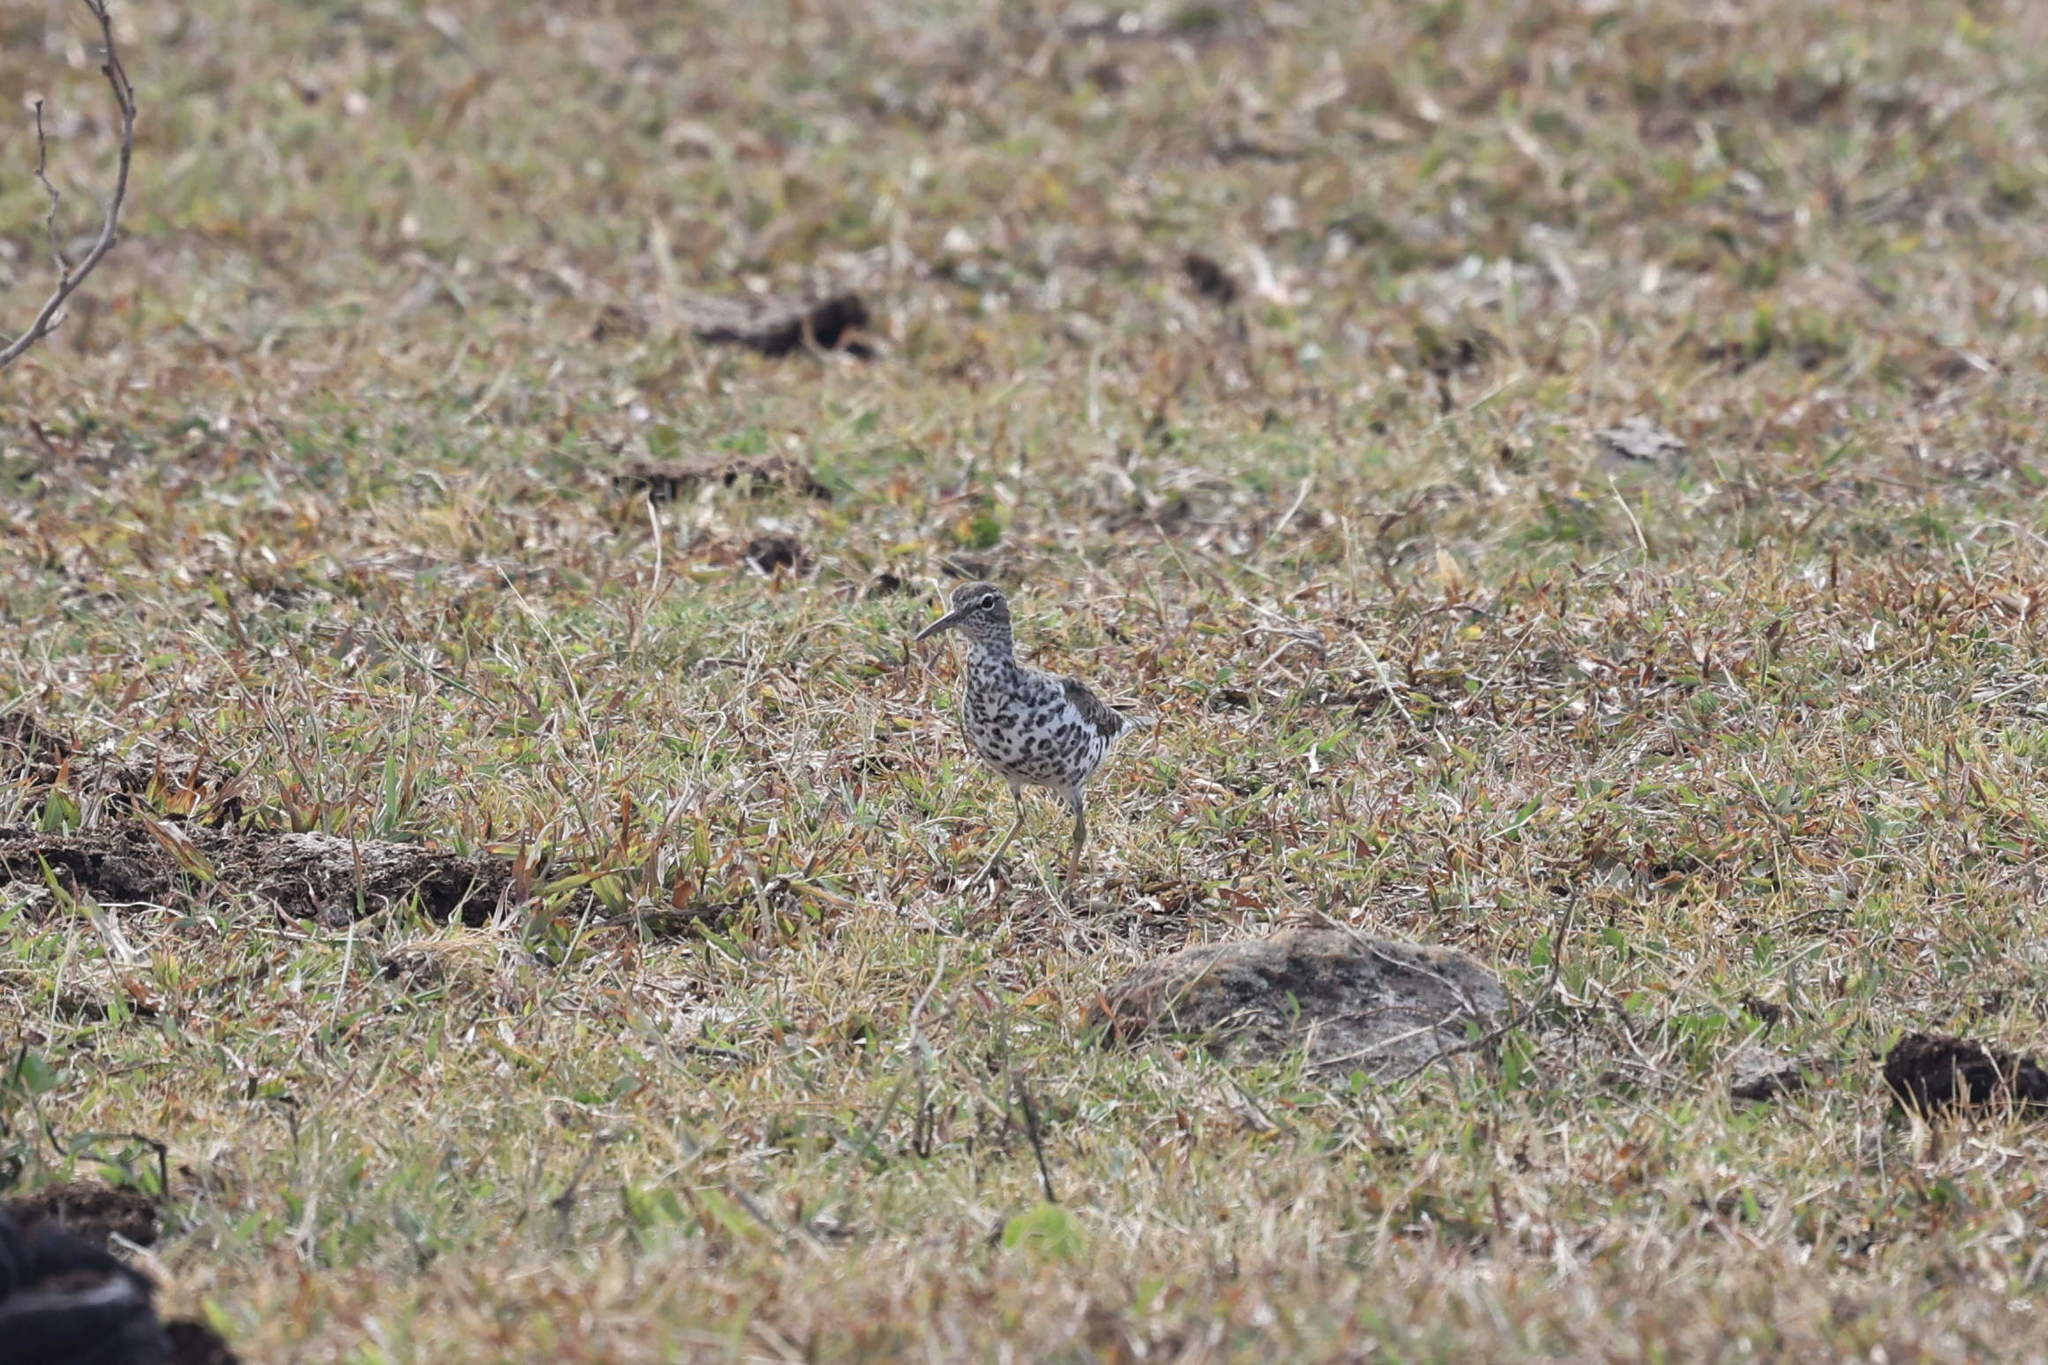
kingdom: Animalia
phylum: Chordata
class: Aves
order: Charadriiformes
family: Scolopacidae
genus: Actitis
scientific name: Actitis macularius
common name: Spotted sandpiper
